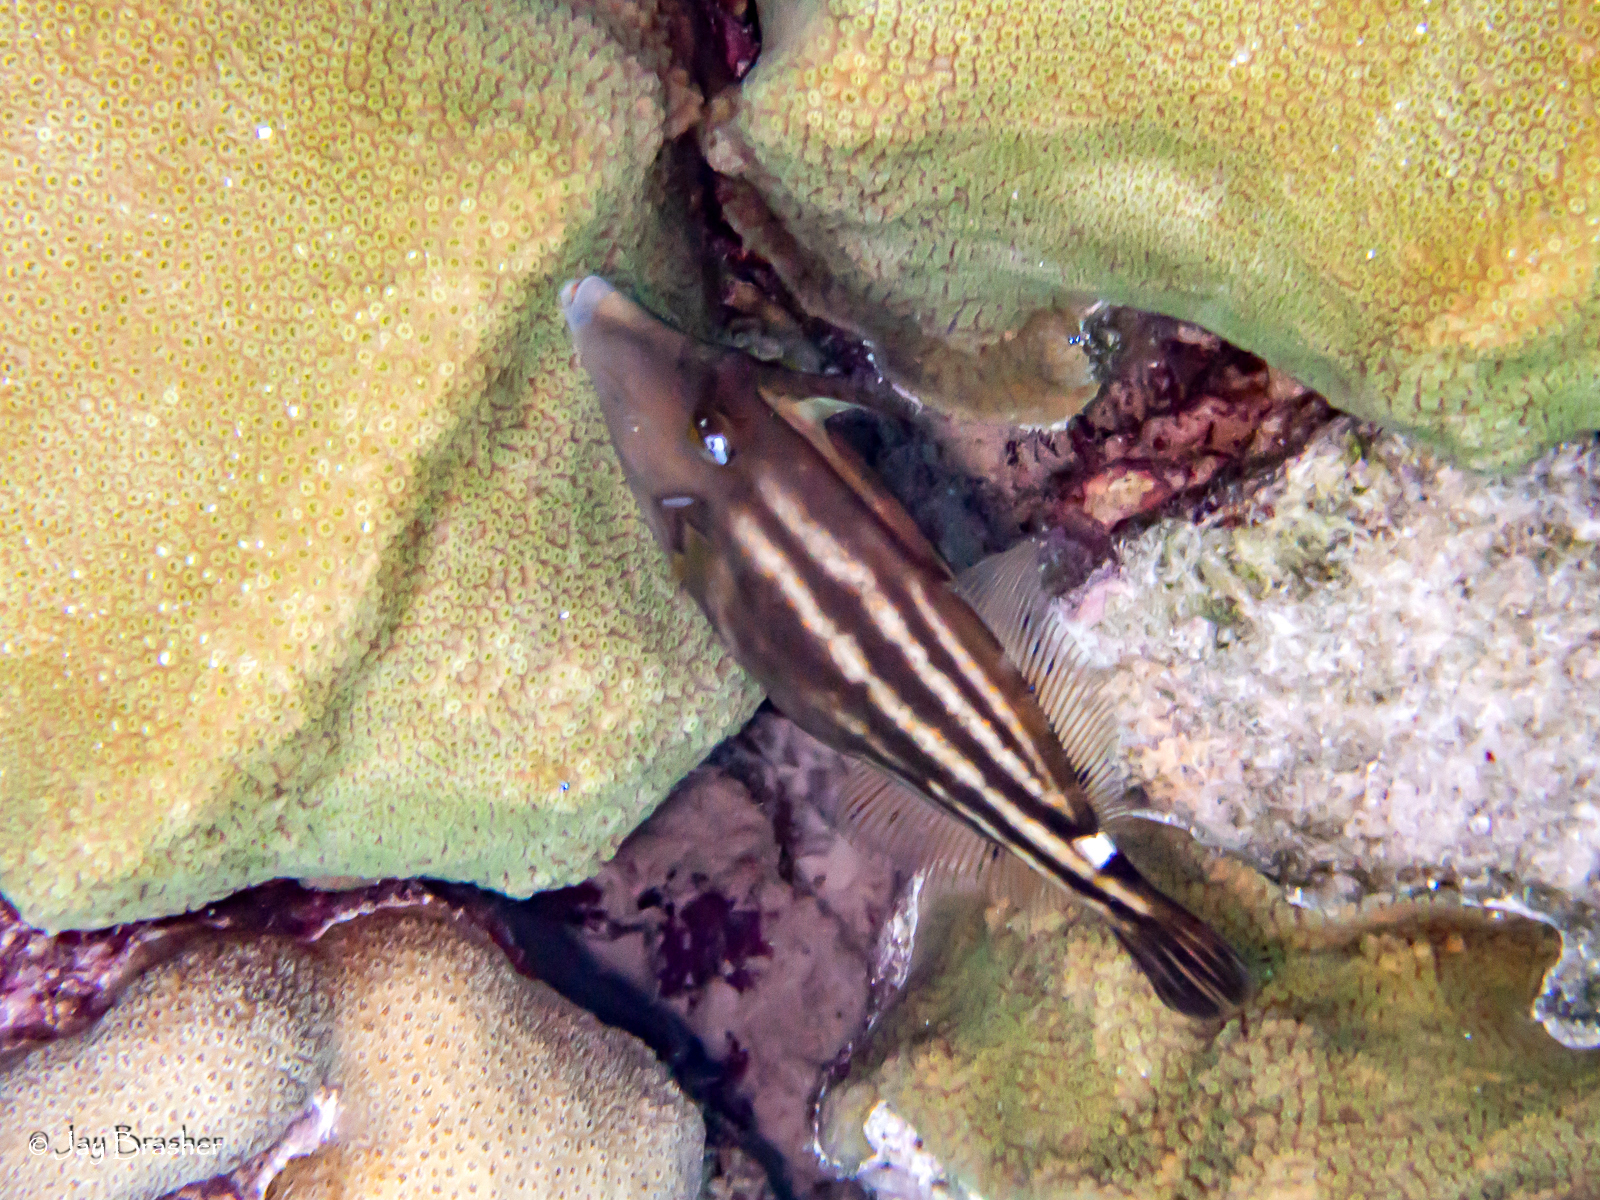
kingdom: Animalia
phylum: Chordata
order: Tetraodontiformes
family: Monacanthidae
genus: Cantherhines
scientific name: Cantherhines pullus
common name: Orangespotted filefish
